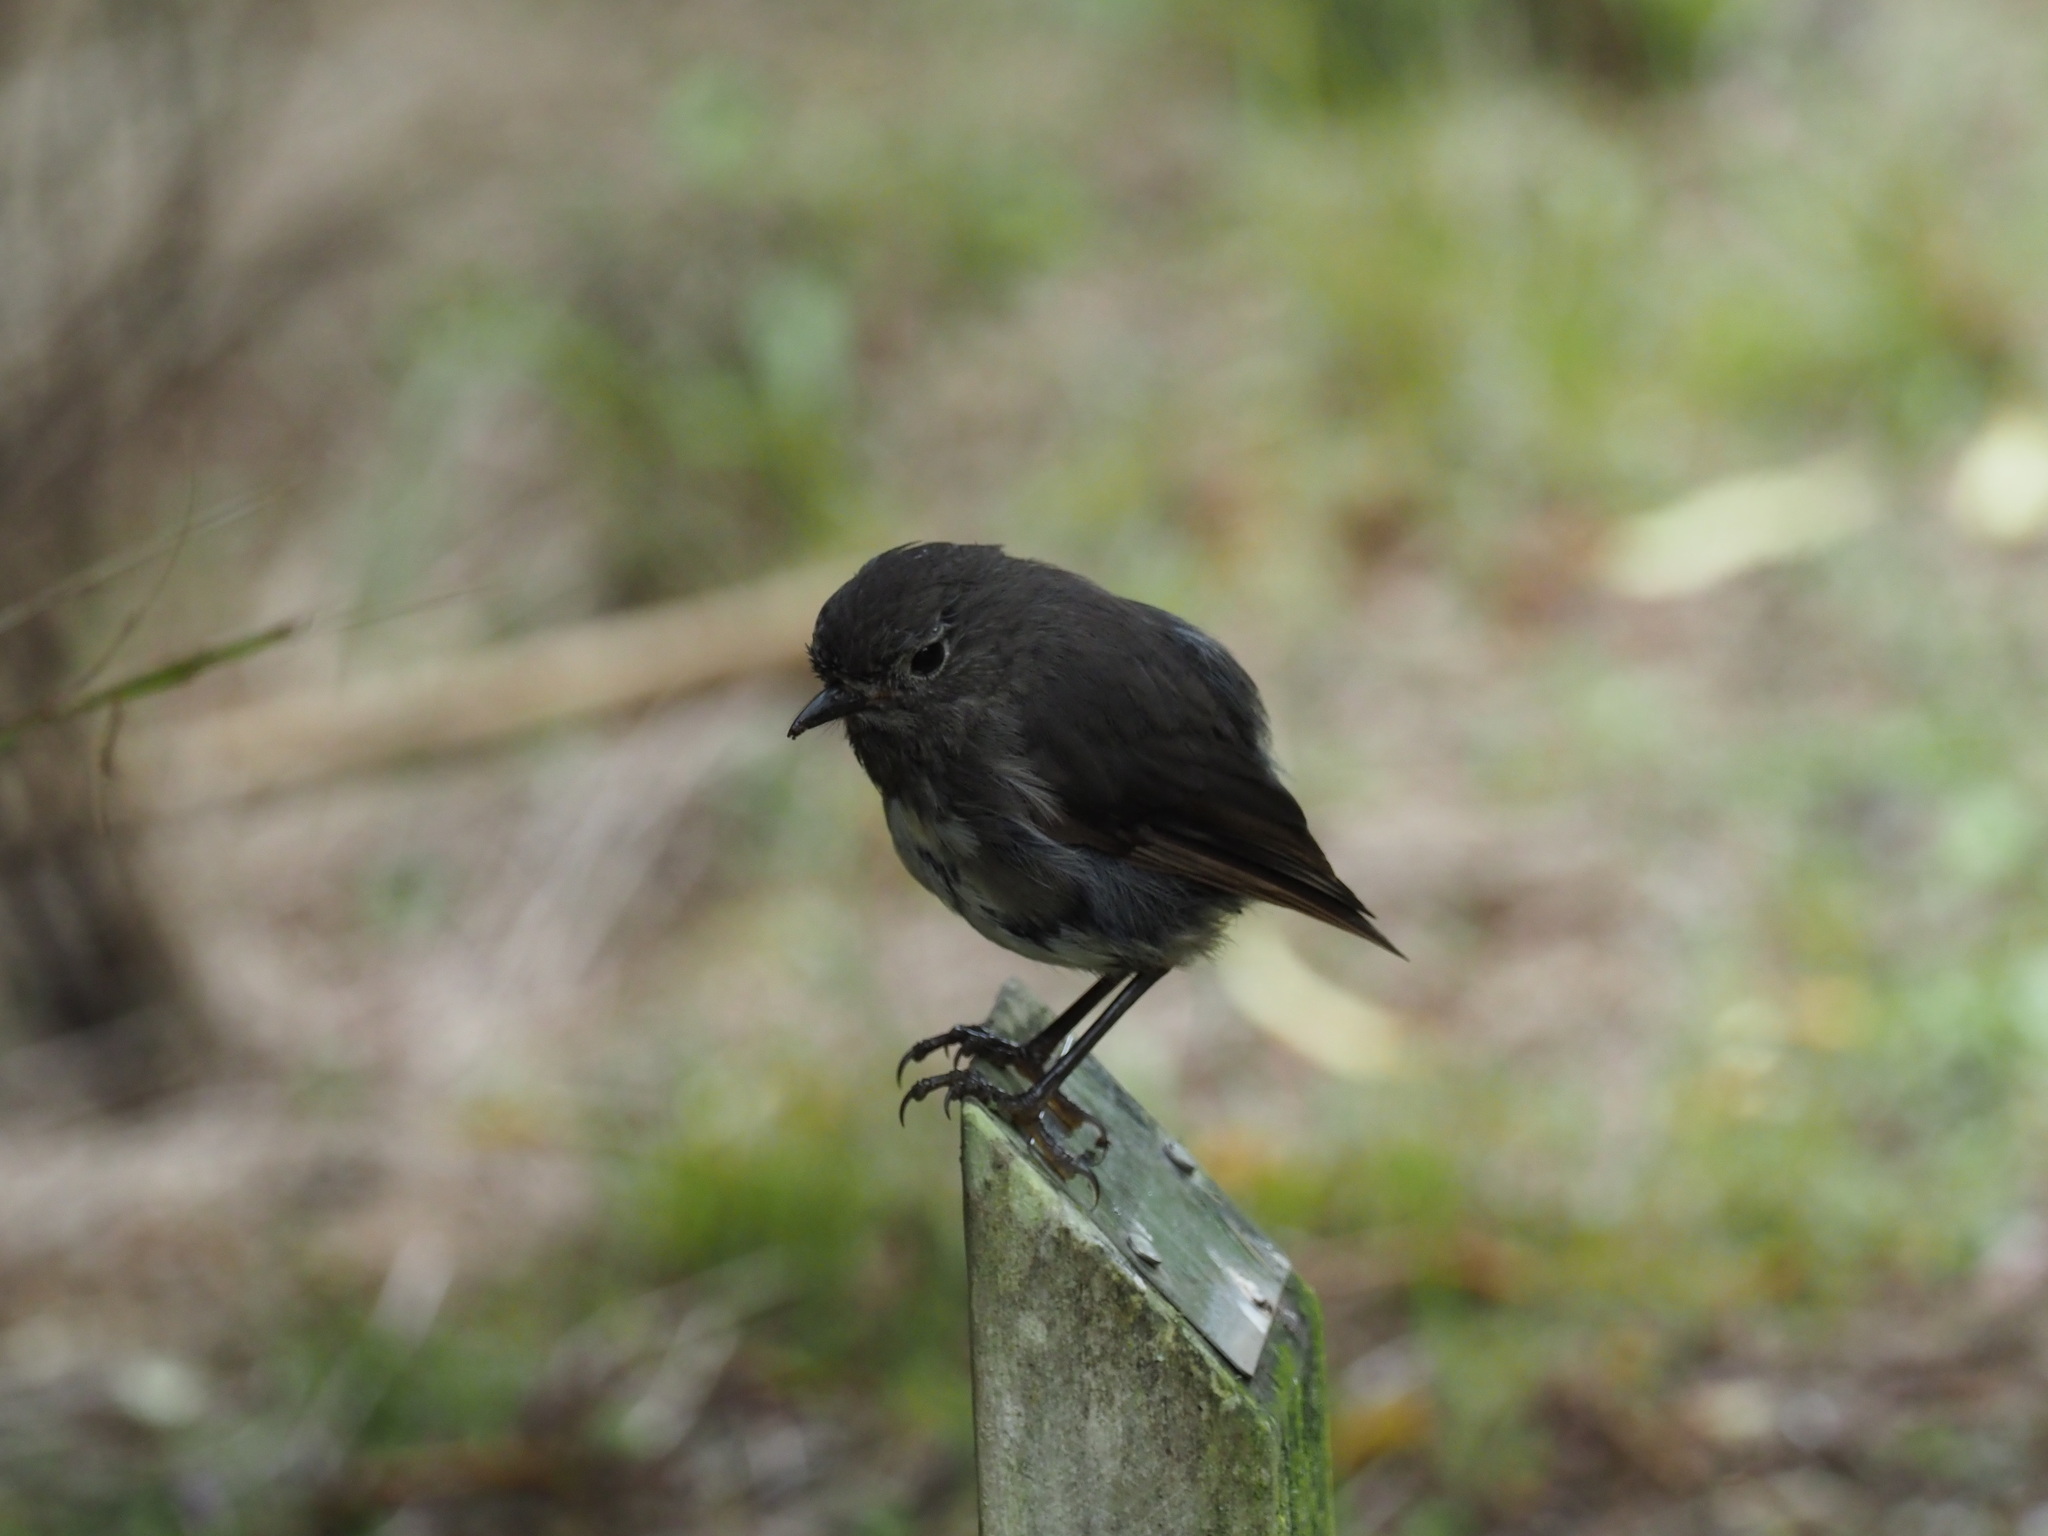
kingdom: Animalia
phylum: Chordata
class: Aves
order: Passeriformes
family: Petroicidae
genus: Petroica
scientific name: Petroica australis
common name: New zealand robin
